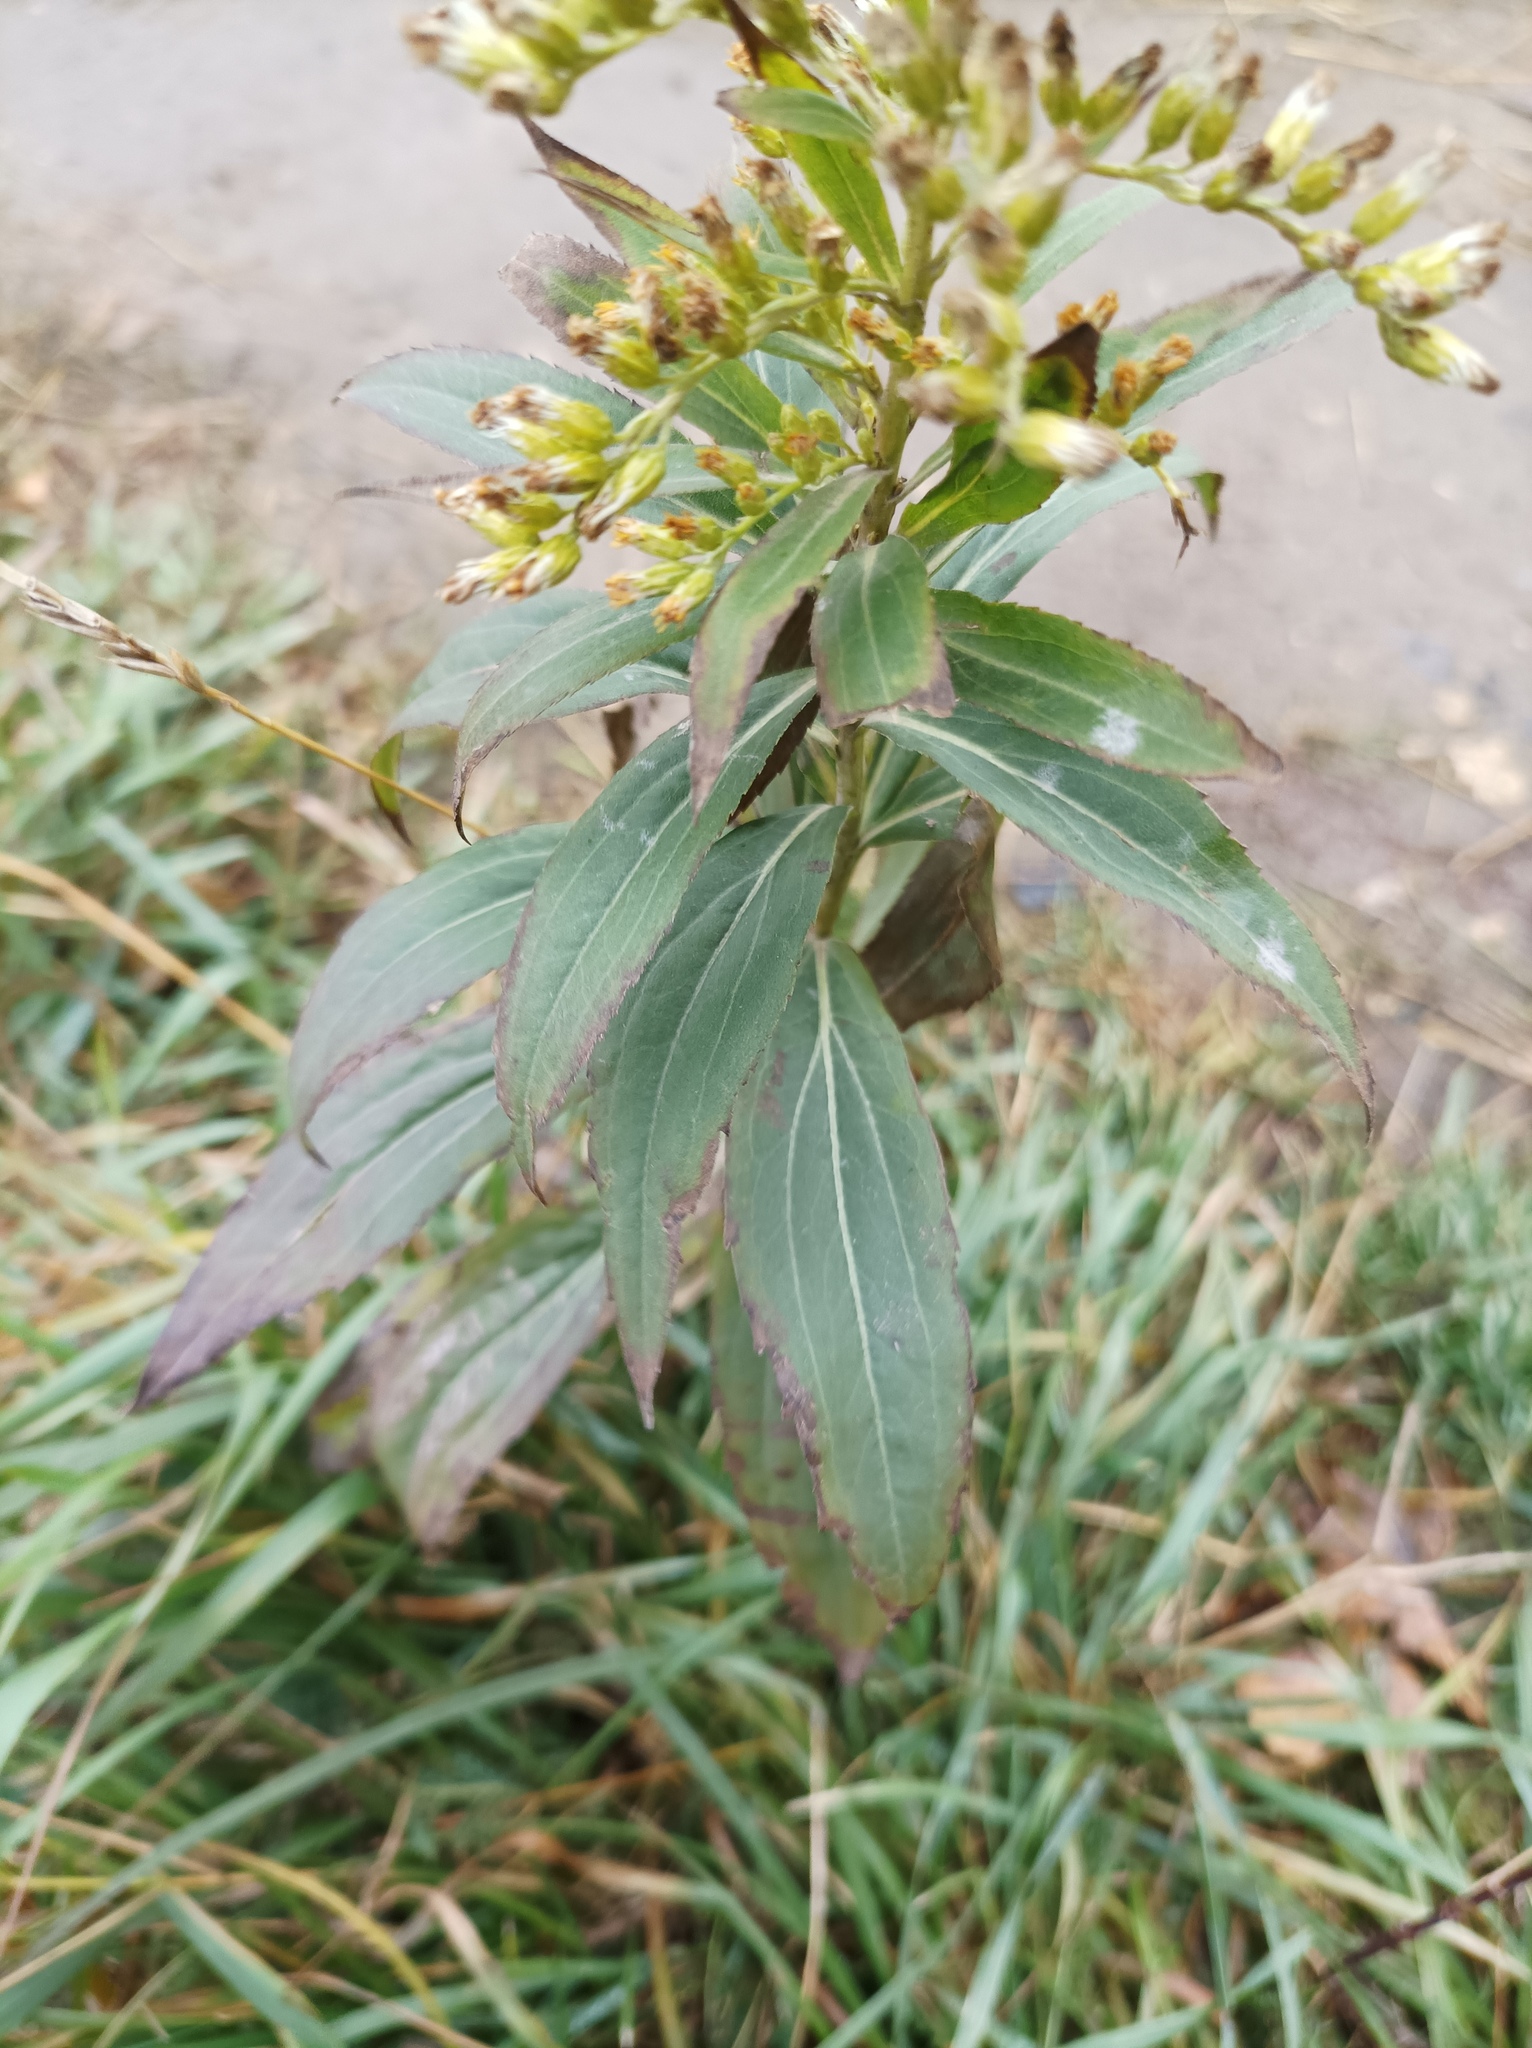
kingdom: Plantae
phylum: Tracheophyta
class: Magnoliopsida
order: Asterales
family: Asteraceae
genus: Solidago
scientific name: Solidago gigantea
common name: Giant goldenrod
